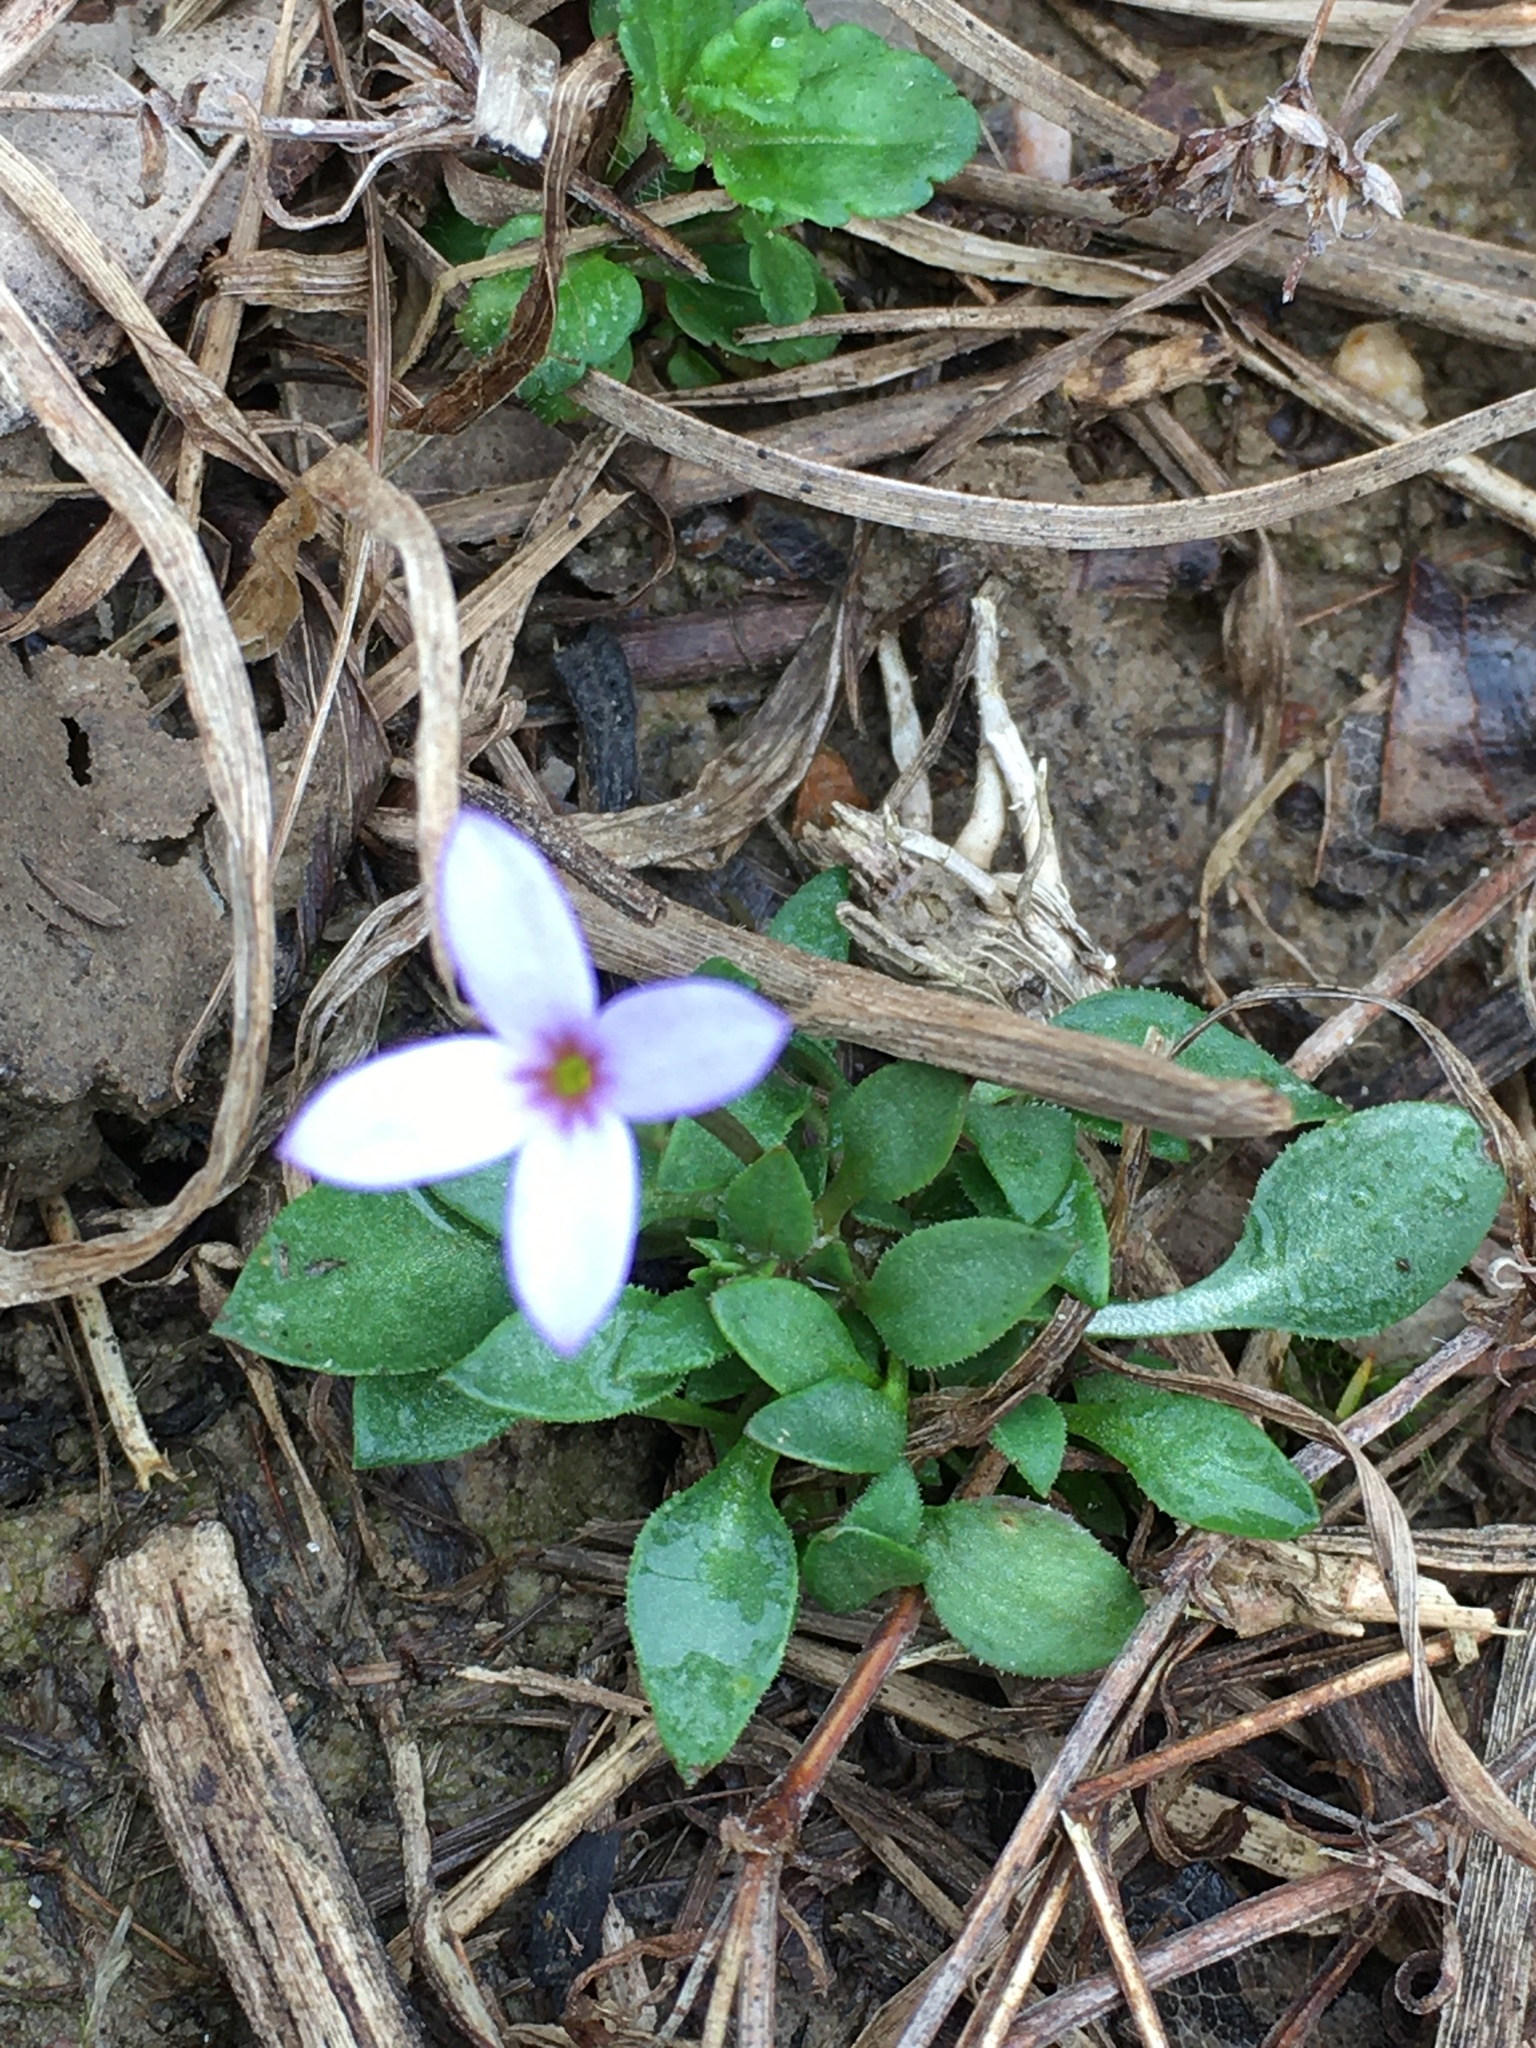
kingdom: Plantae
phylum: Tracheophyta
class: Magnoliopsida
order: Gentianales
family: Rubiaceae
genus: Houstonia
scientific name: Houstonia pusilla
